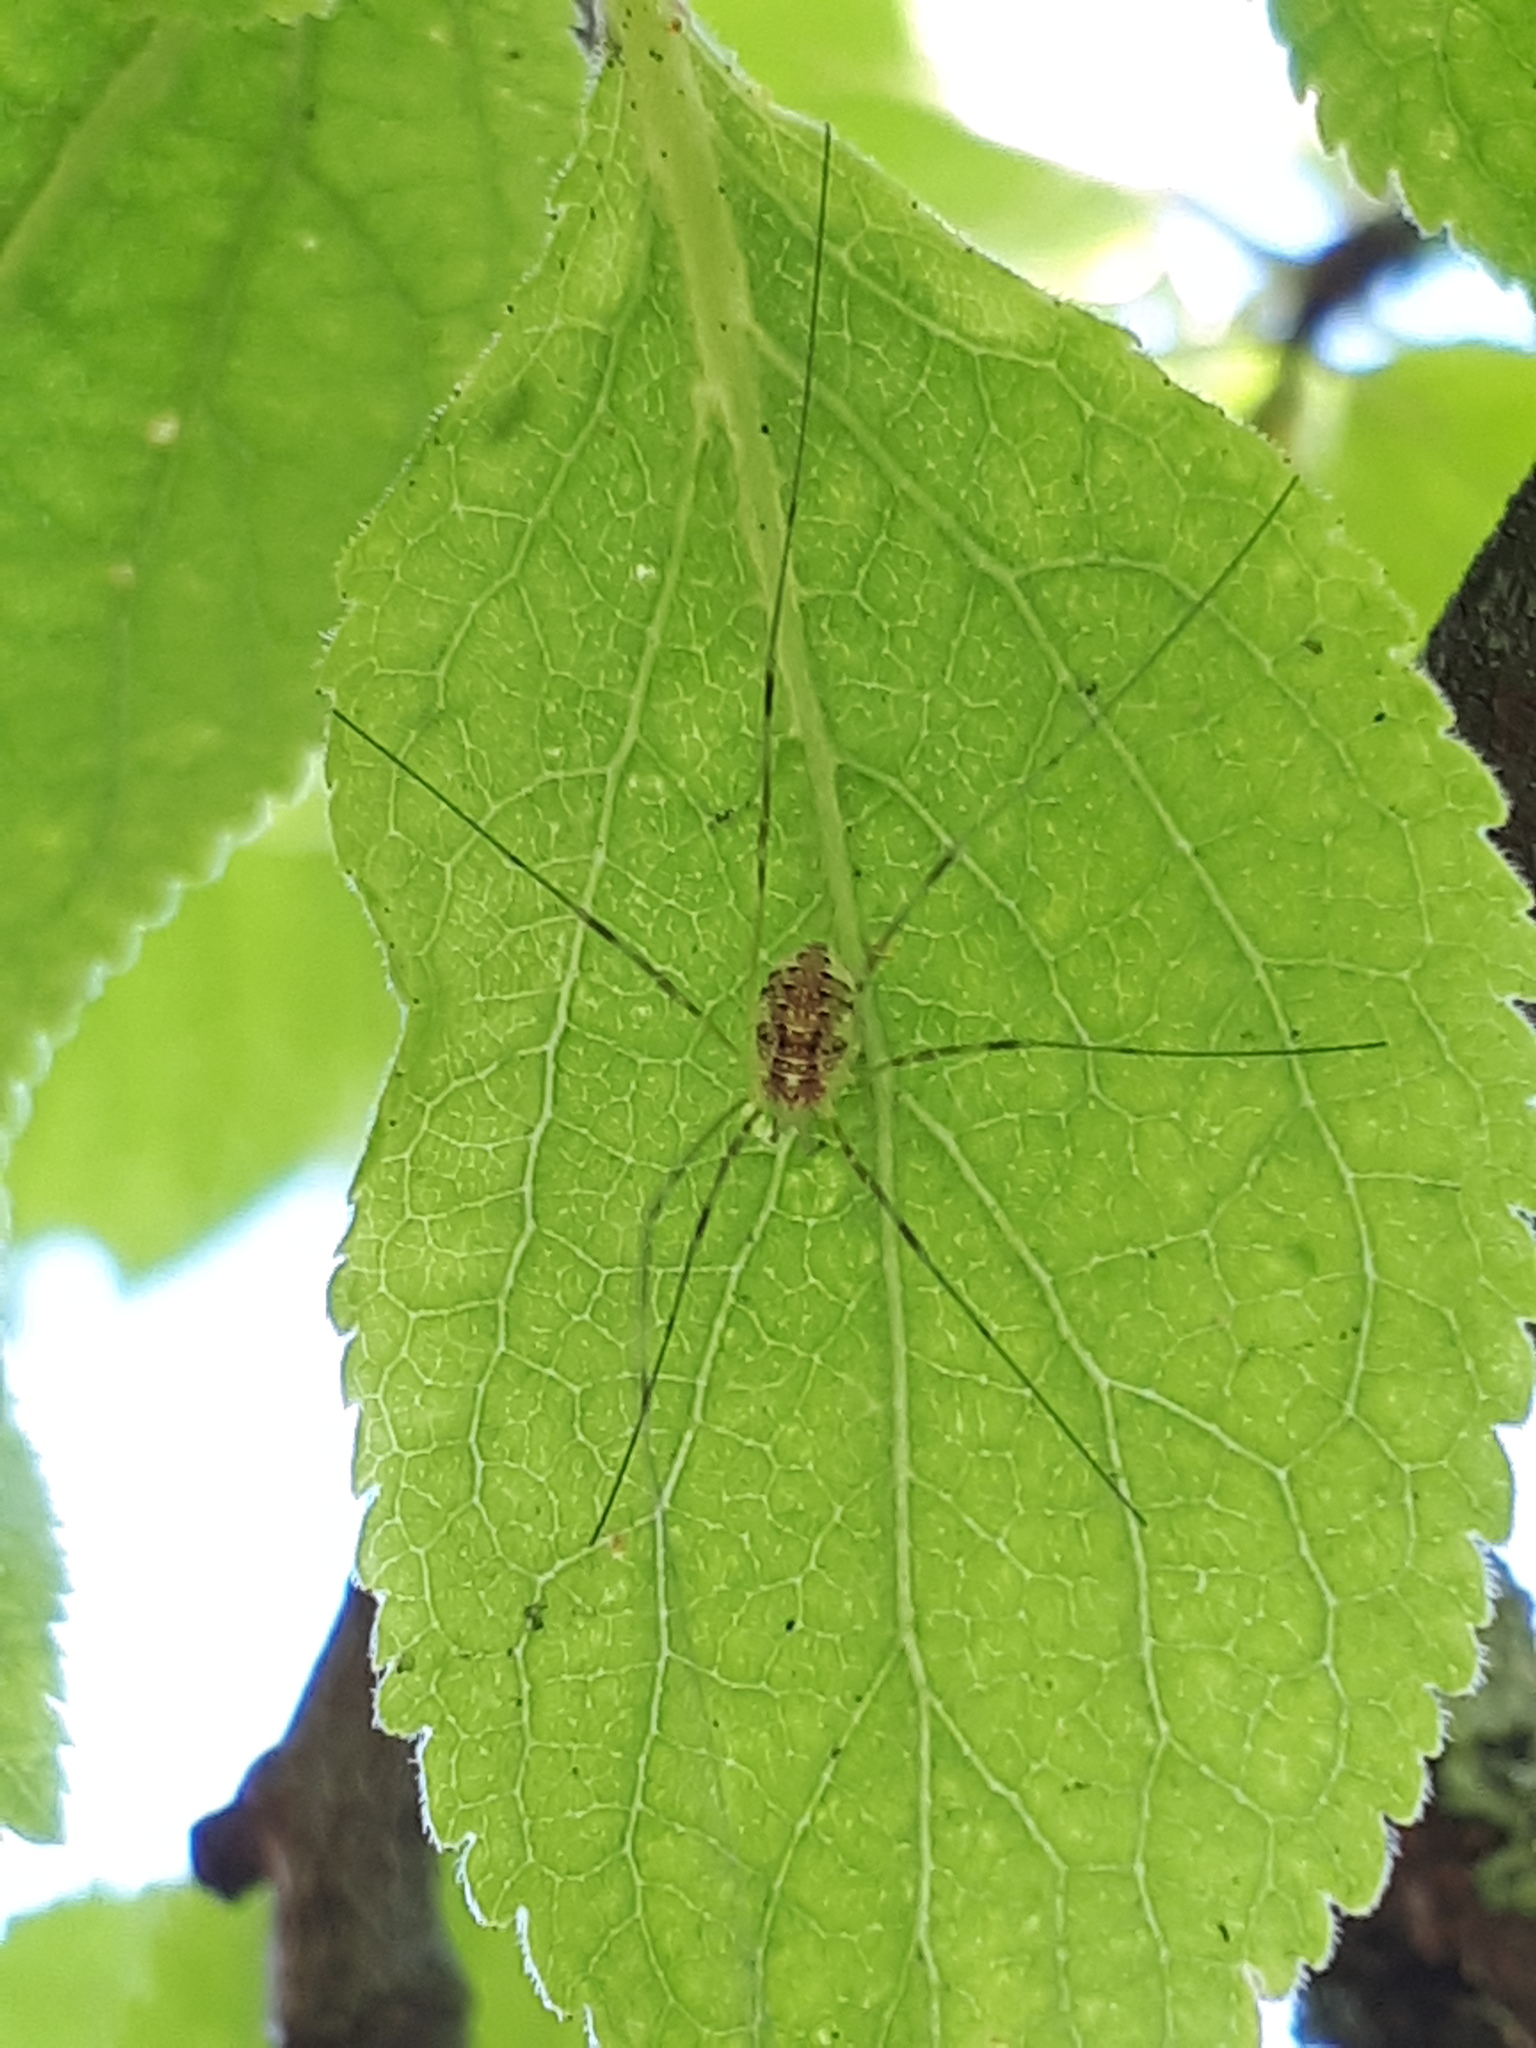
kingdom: Animalia
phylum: Arthropoda
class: Arachnida
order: Opiliones
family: Phalangiidae
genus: Opilio
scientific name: Opilio canestrinii
